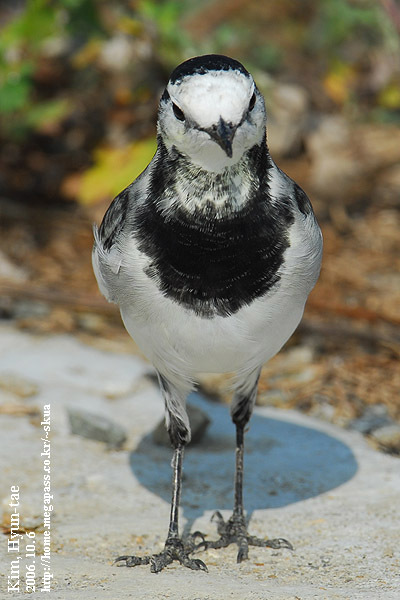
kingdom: Animalia
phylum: Chordata
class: Aves
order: Passeriformes
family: Motacillidae
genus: Motacilla
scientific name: Motacilla alba
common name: White wagtail
